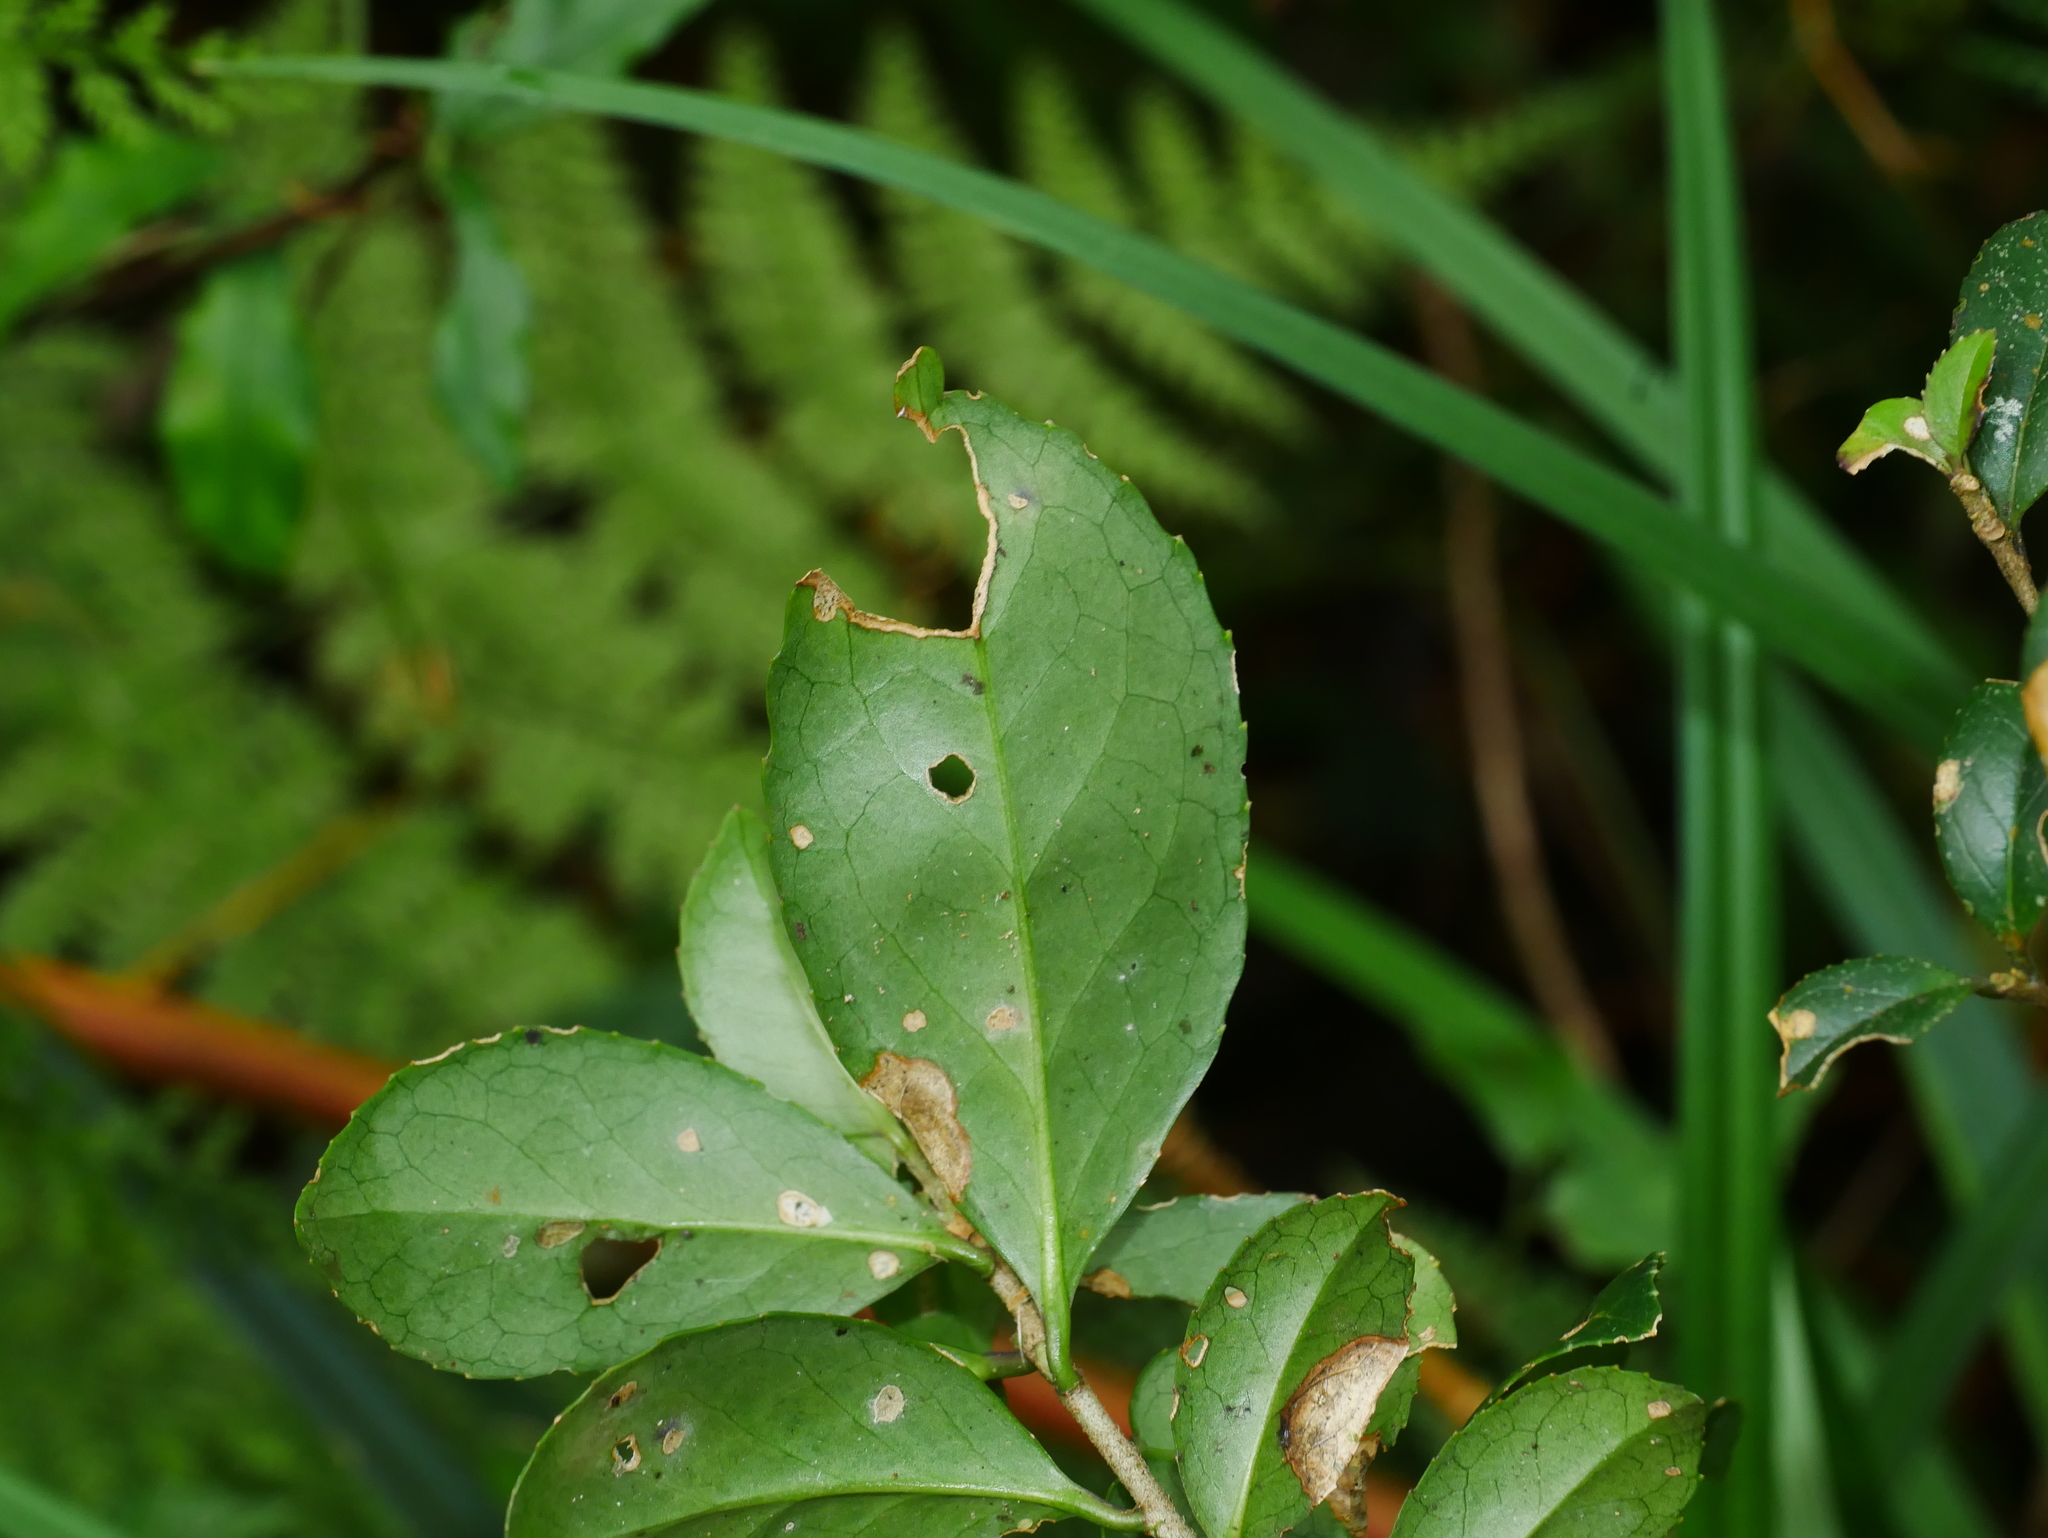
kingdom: Plantae
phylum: Tracheophyta
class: Magnoliopsida
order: Ericales
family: Symplocaceae
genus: Symplocos
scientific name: Symplocos sumuntia
